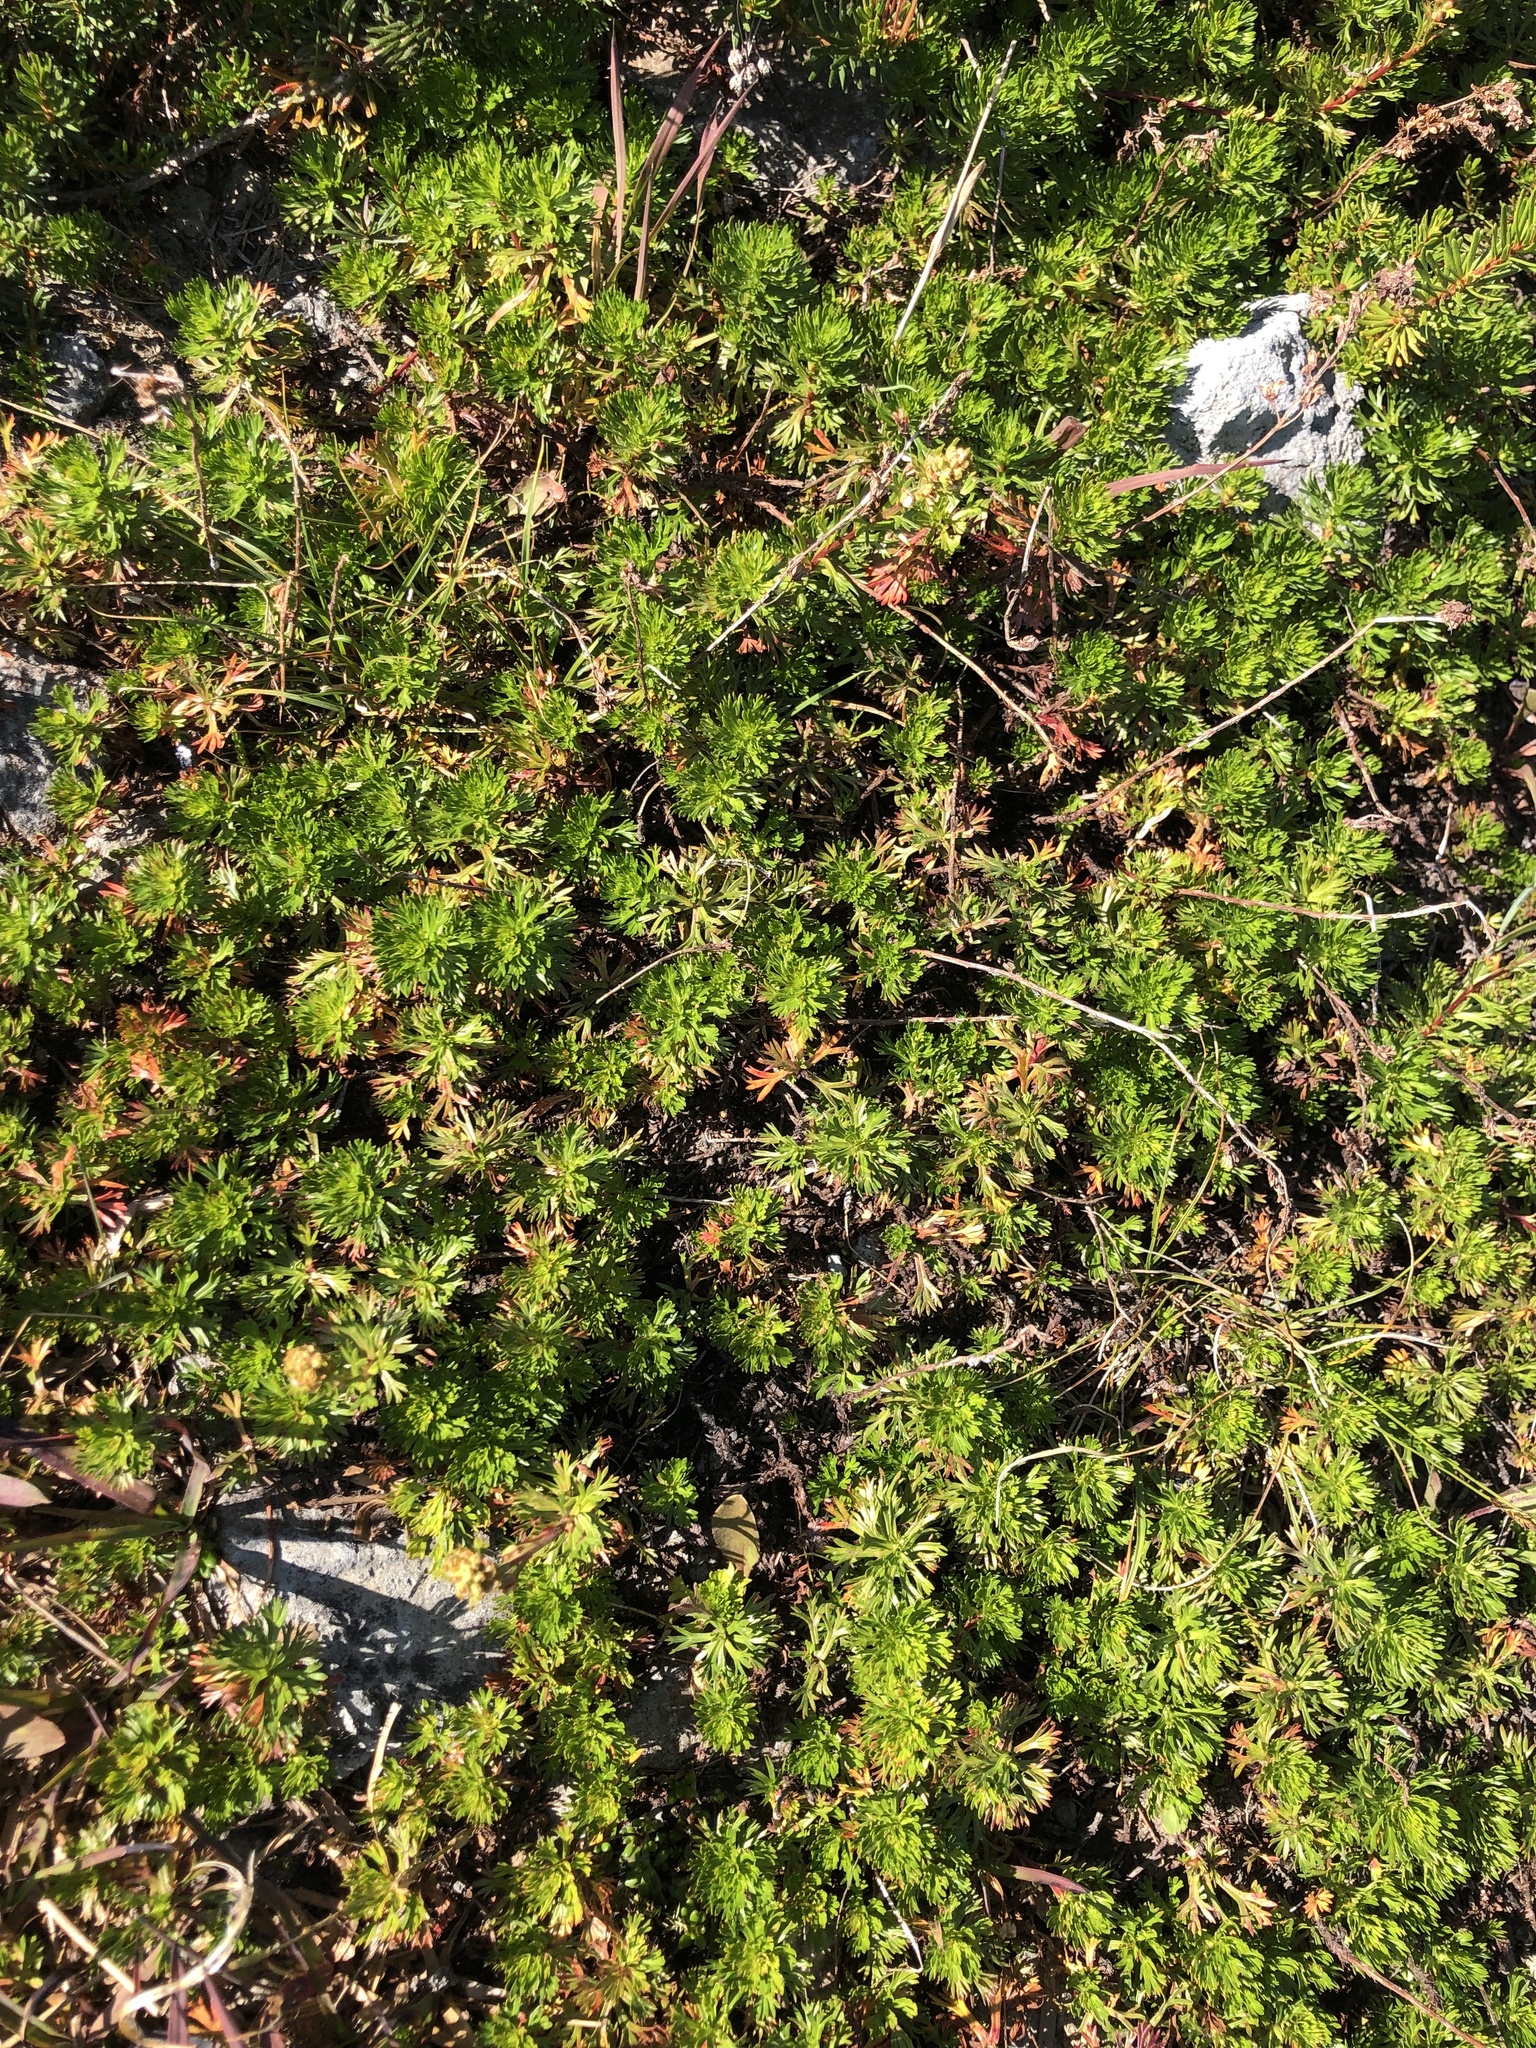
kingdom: Plantae
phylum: Tracheophyta
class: Magnoliopsida
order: Rosales
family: Rosaceae
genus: Luetkea
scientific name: Luetkea pectinata
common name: Partridgefoot
